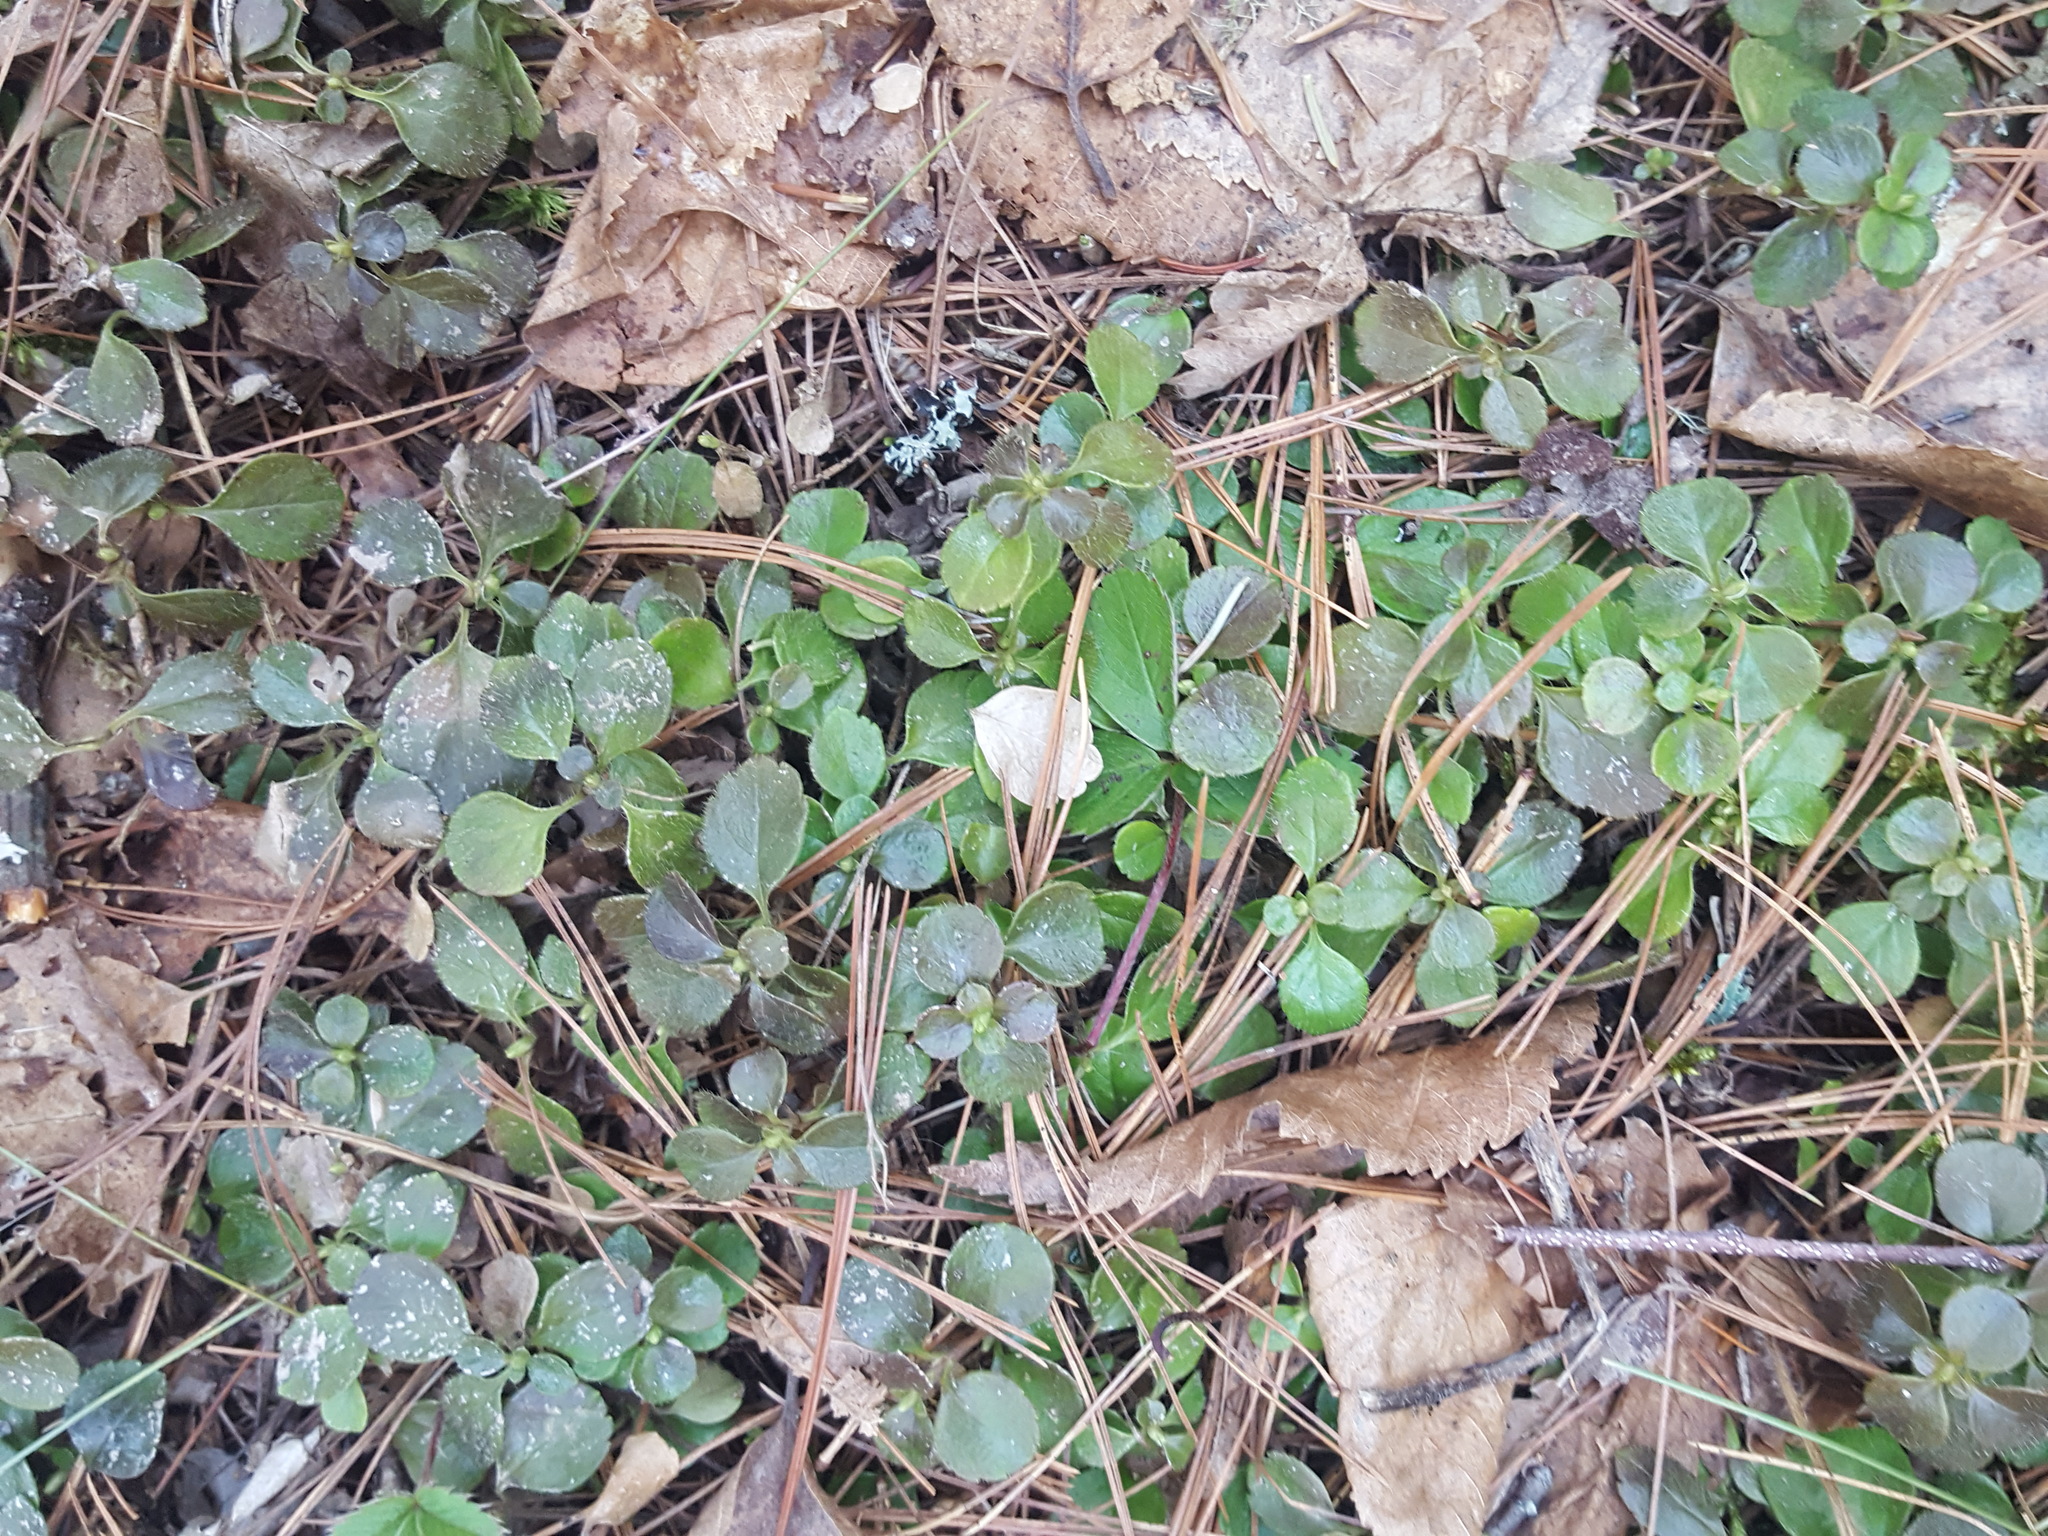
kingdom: Plantae
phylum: Tracheophyta
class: Magnoliopsida
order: Dipsacales
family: Caprifoliaceae
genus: Linnaea
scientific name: Linnaea borealis
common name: Twinflower
